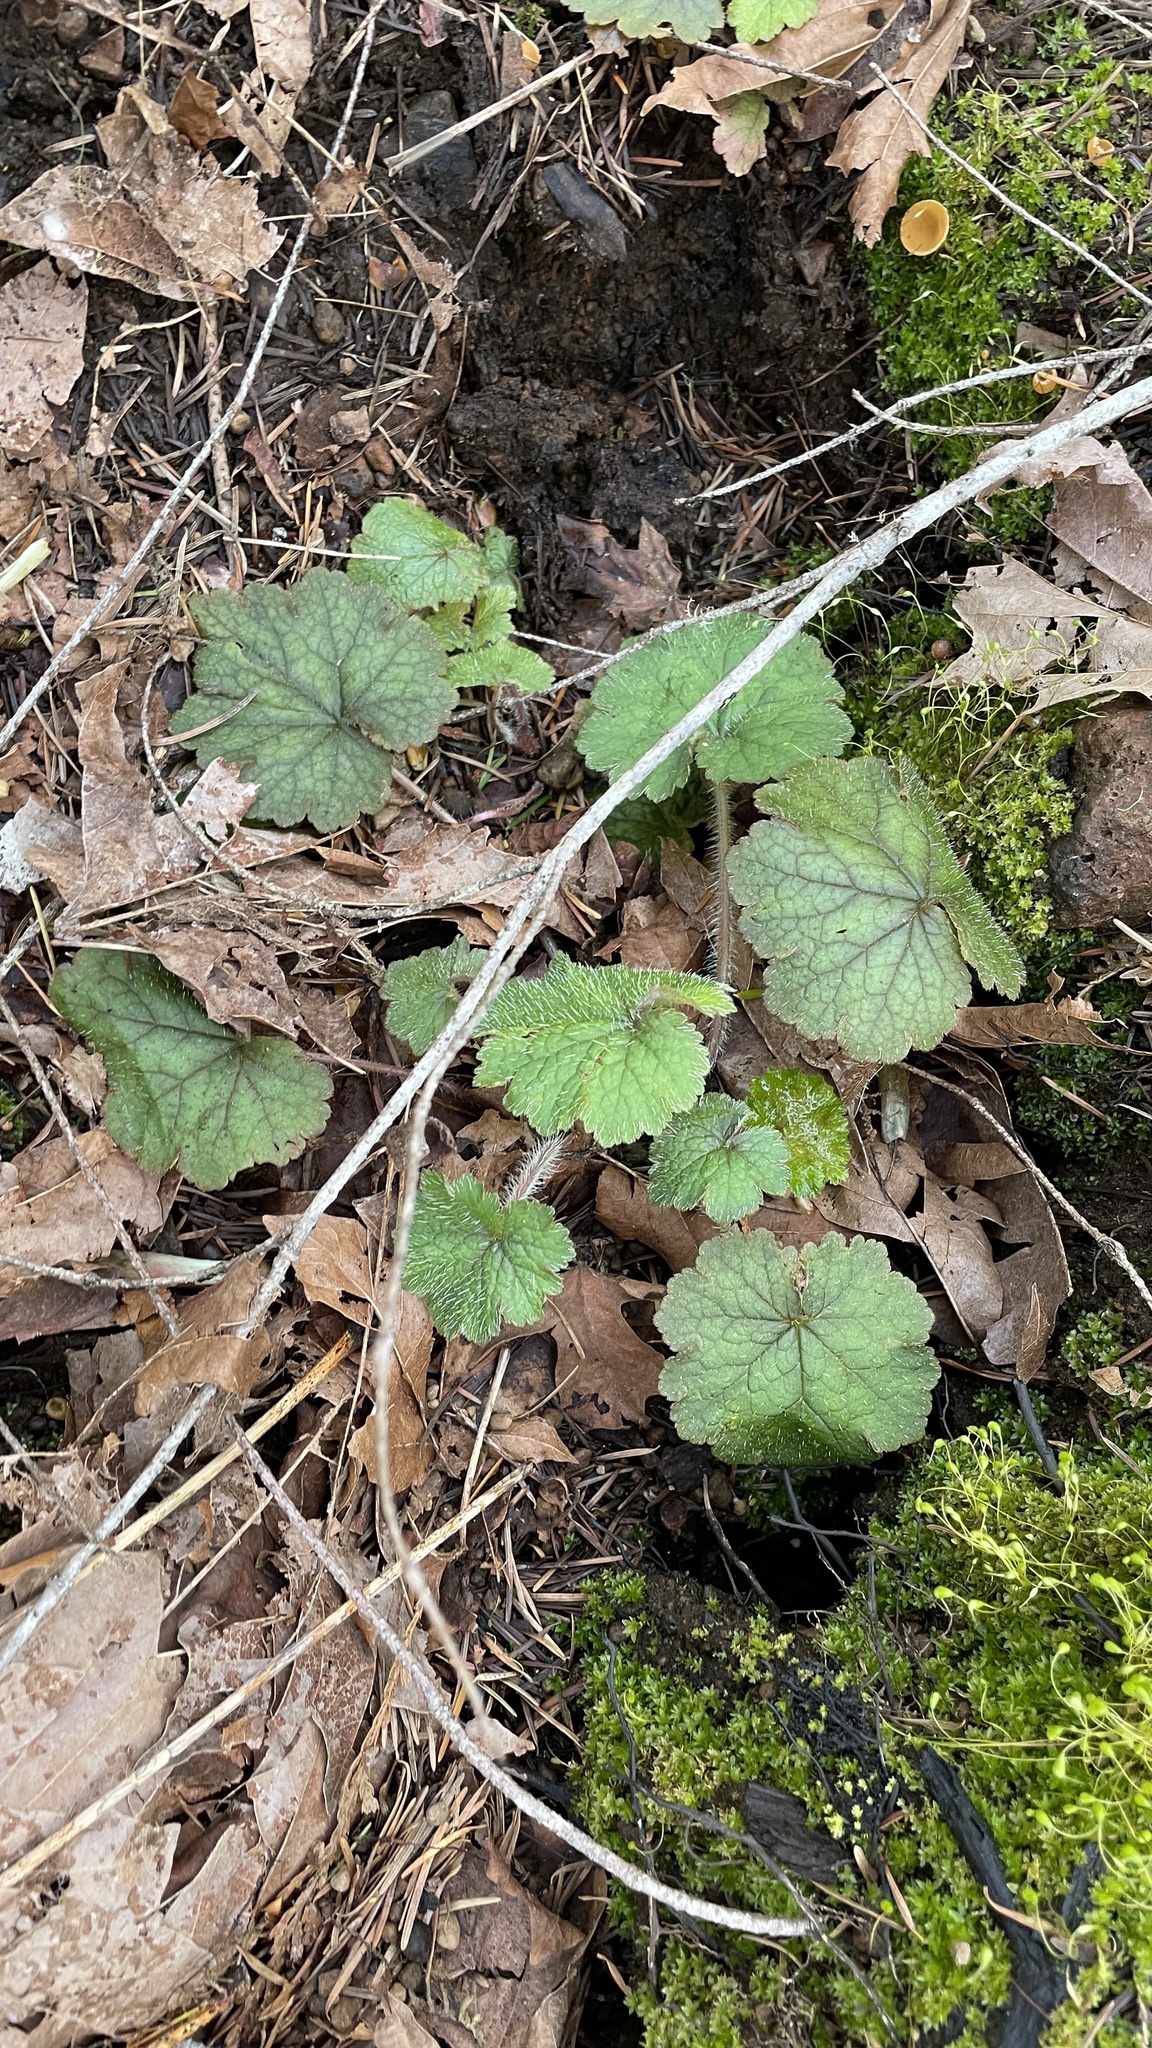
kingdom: Plantae
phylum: Tracheophyta
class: Magnoliopsida
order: Saxifragales
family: Saxifragaceae
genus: Tellima
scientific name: Tellima grandiflora
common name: Fringecups
